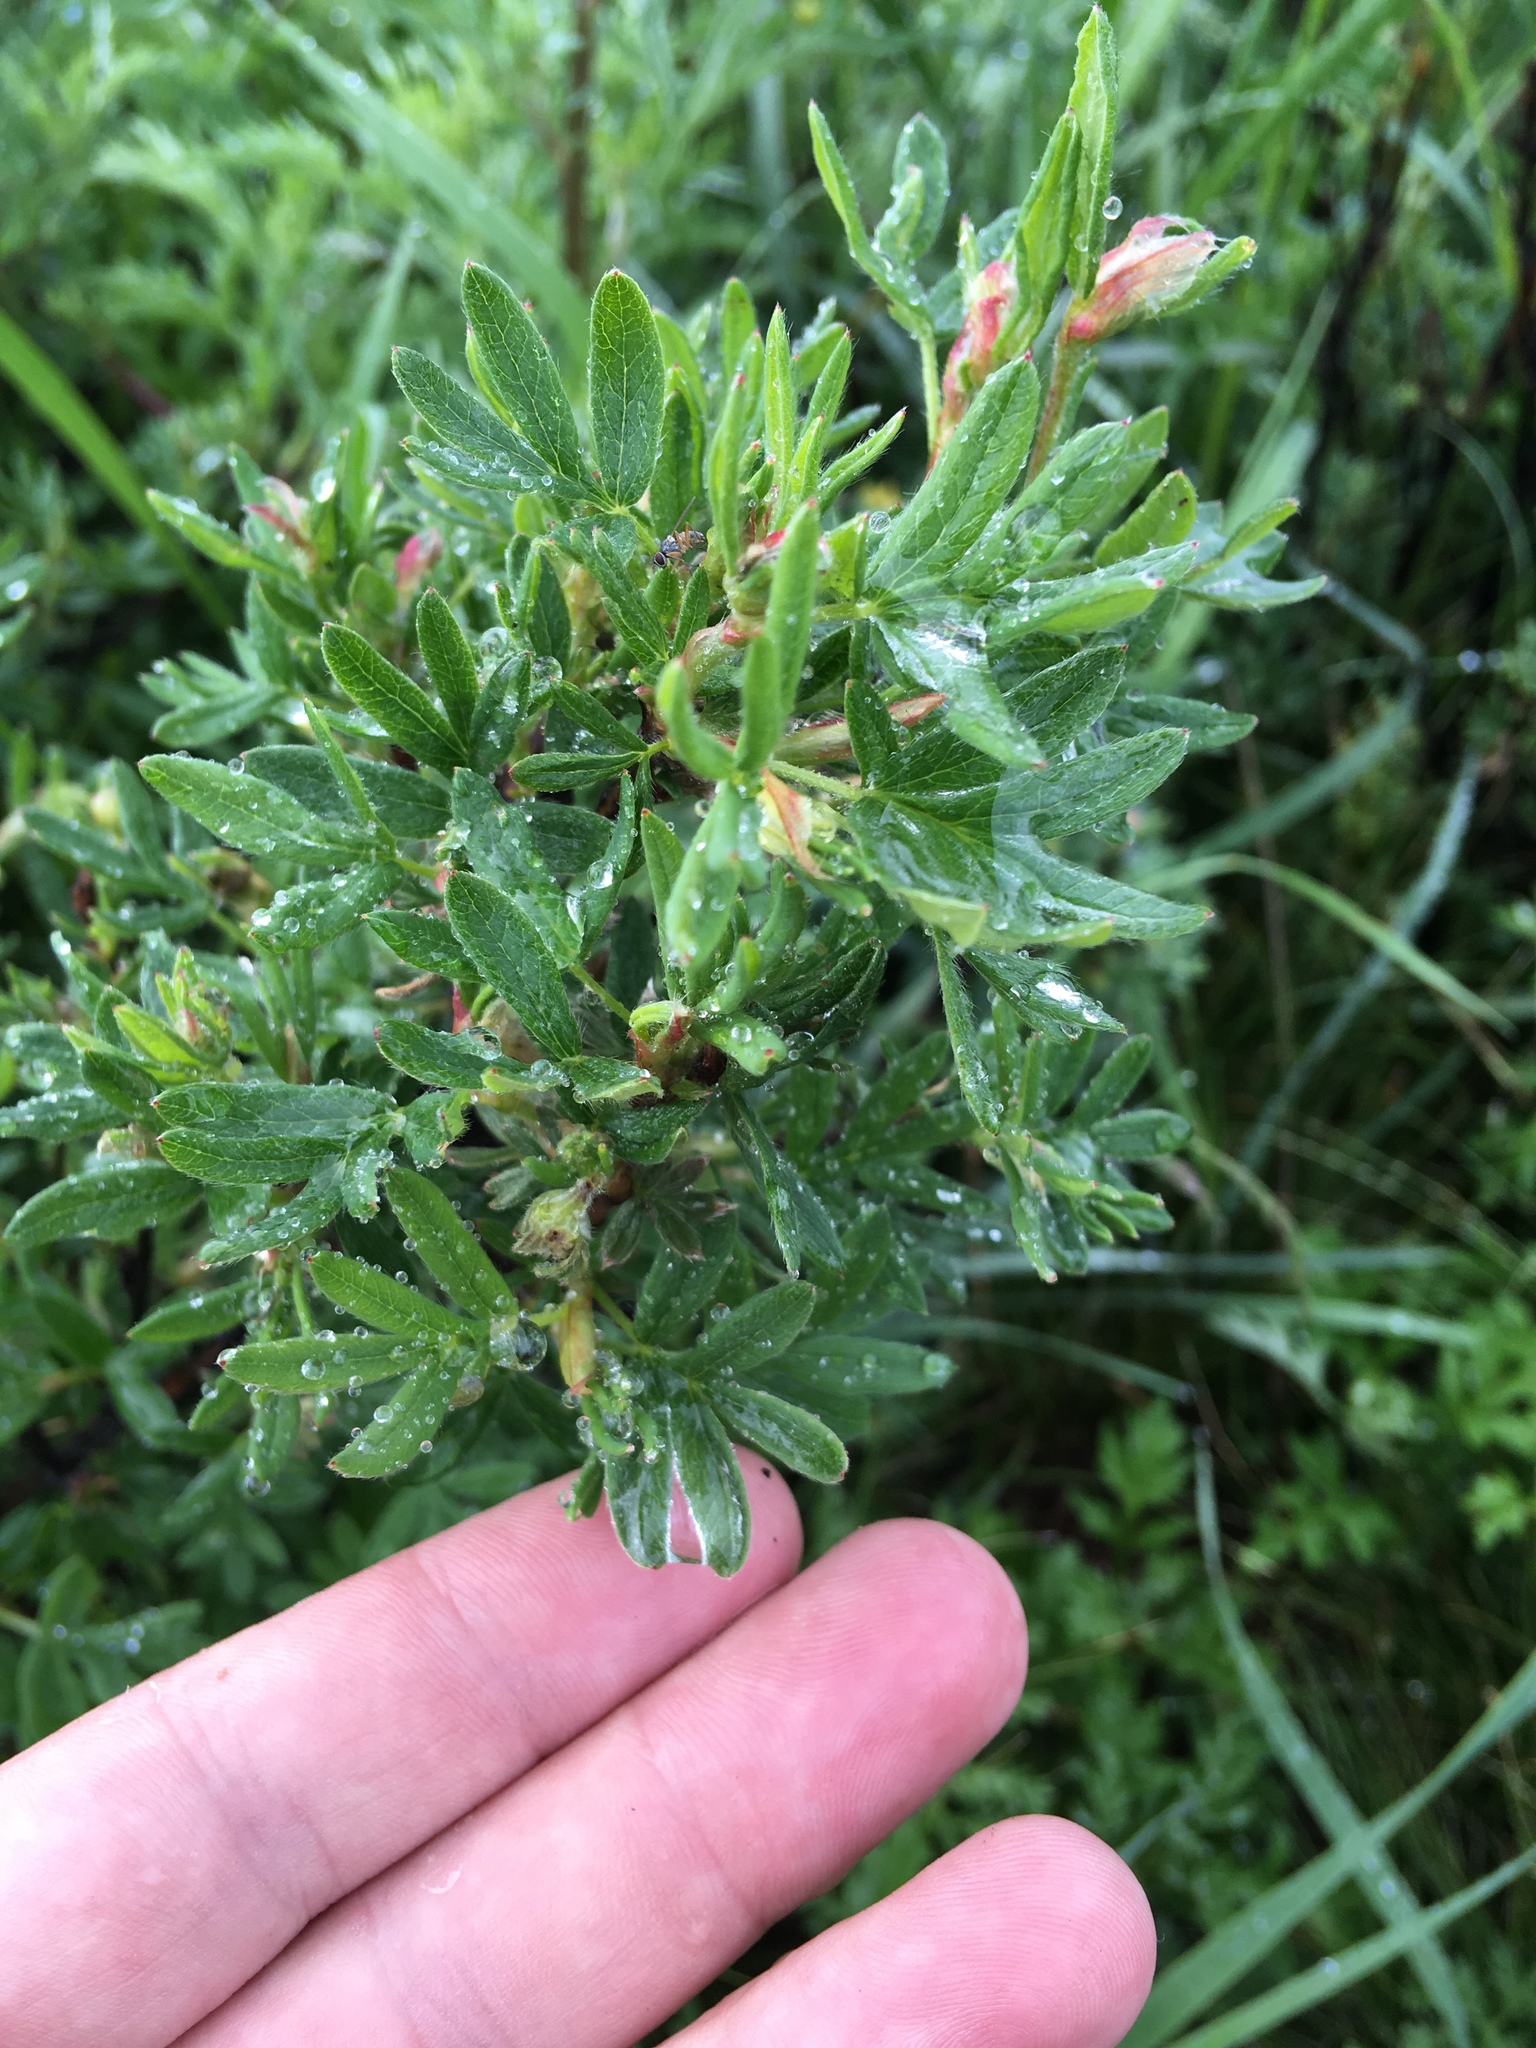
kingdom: Plantae
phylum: Tracheophyta
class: Magnoliopsida
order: Rosales
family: Rosaceae
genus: Dasiphora
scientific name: Dasiphora fruticosa
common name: Shrubby cinquefoil
